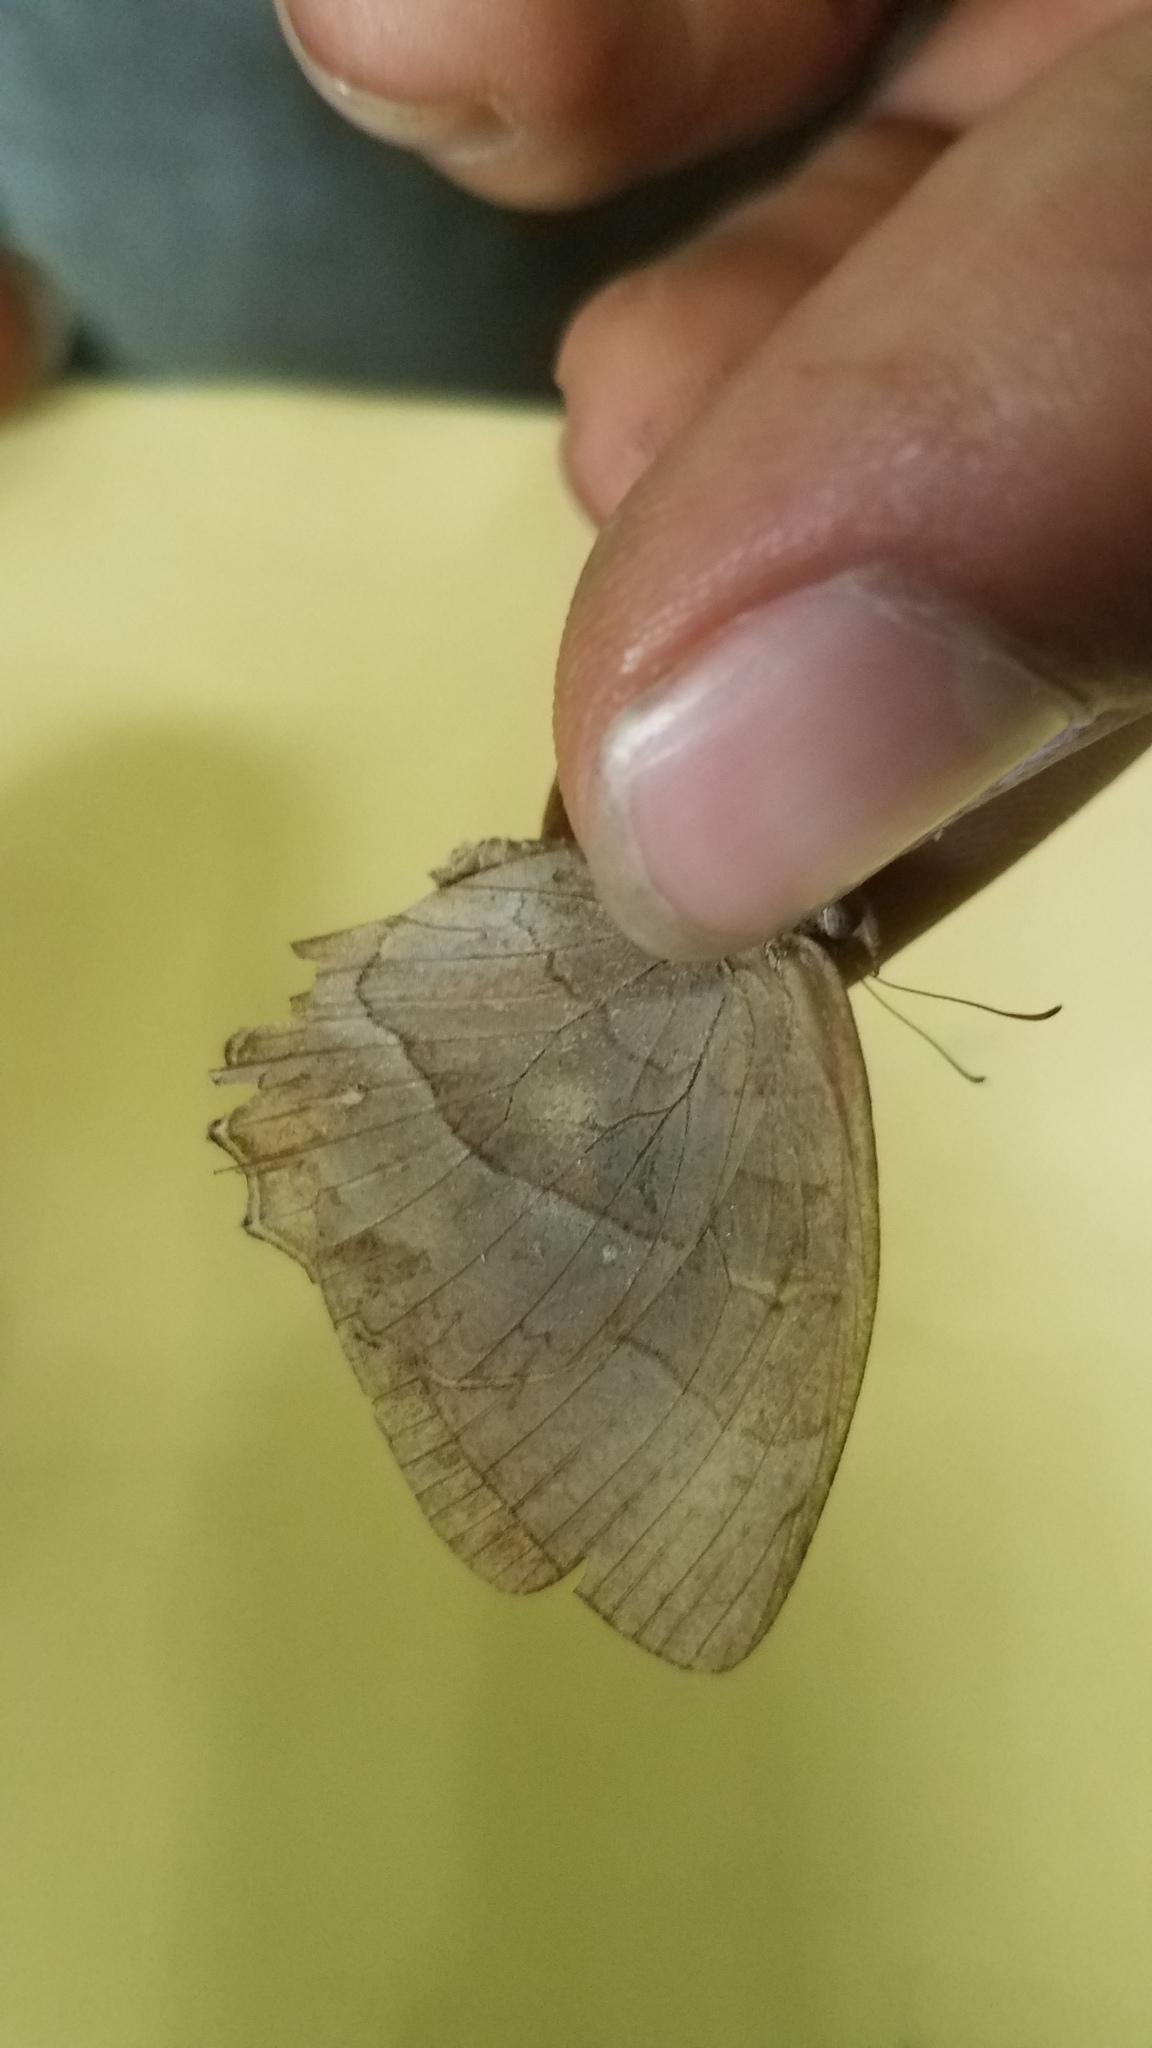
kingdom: Animalia
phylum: Arthropoda
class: Insecta
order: Lepidoptera
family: Nymphalidae
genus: Taygetina
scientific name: Taygetina kerea
